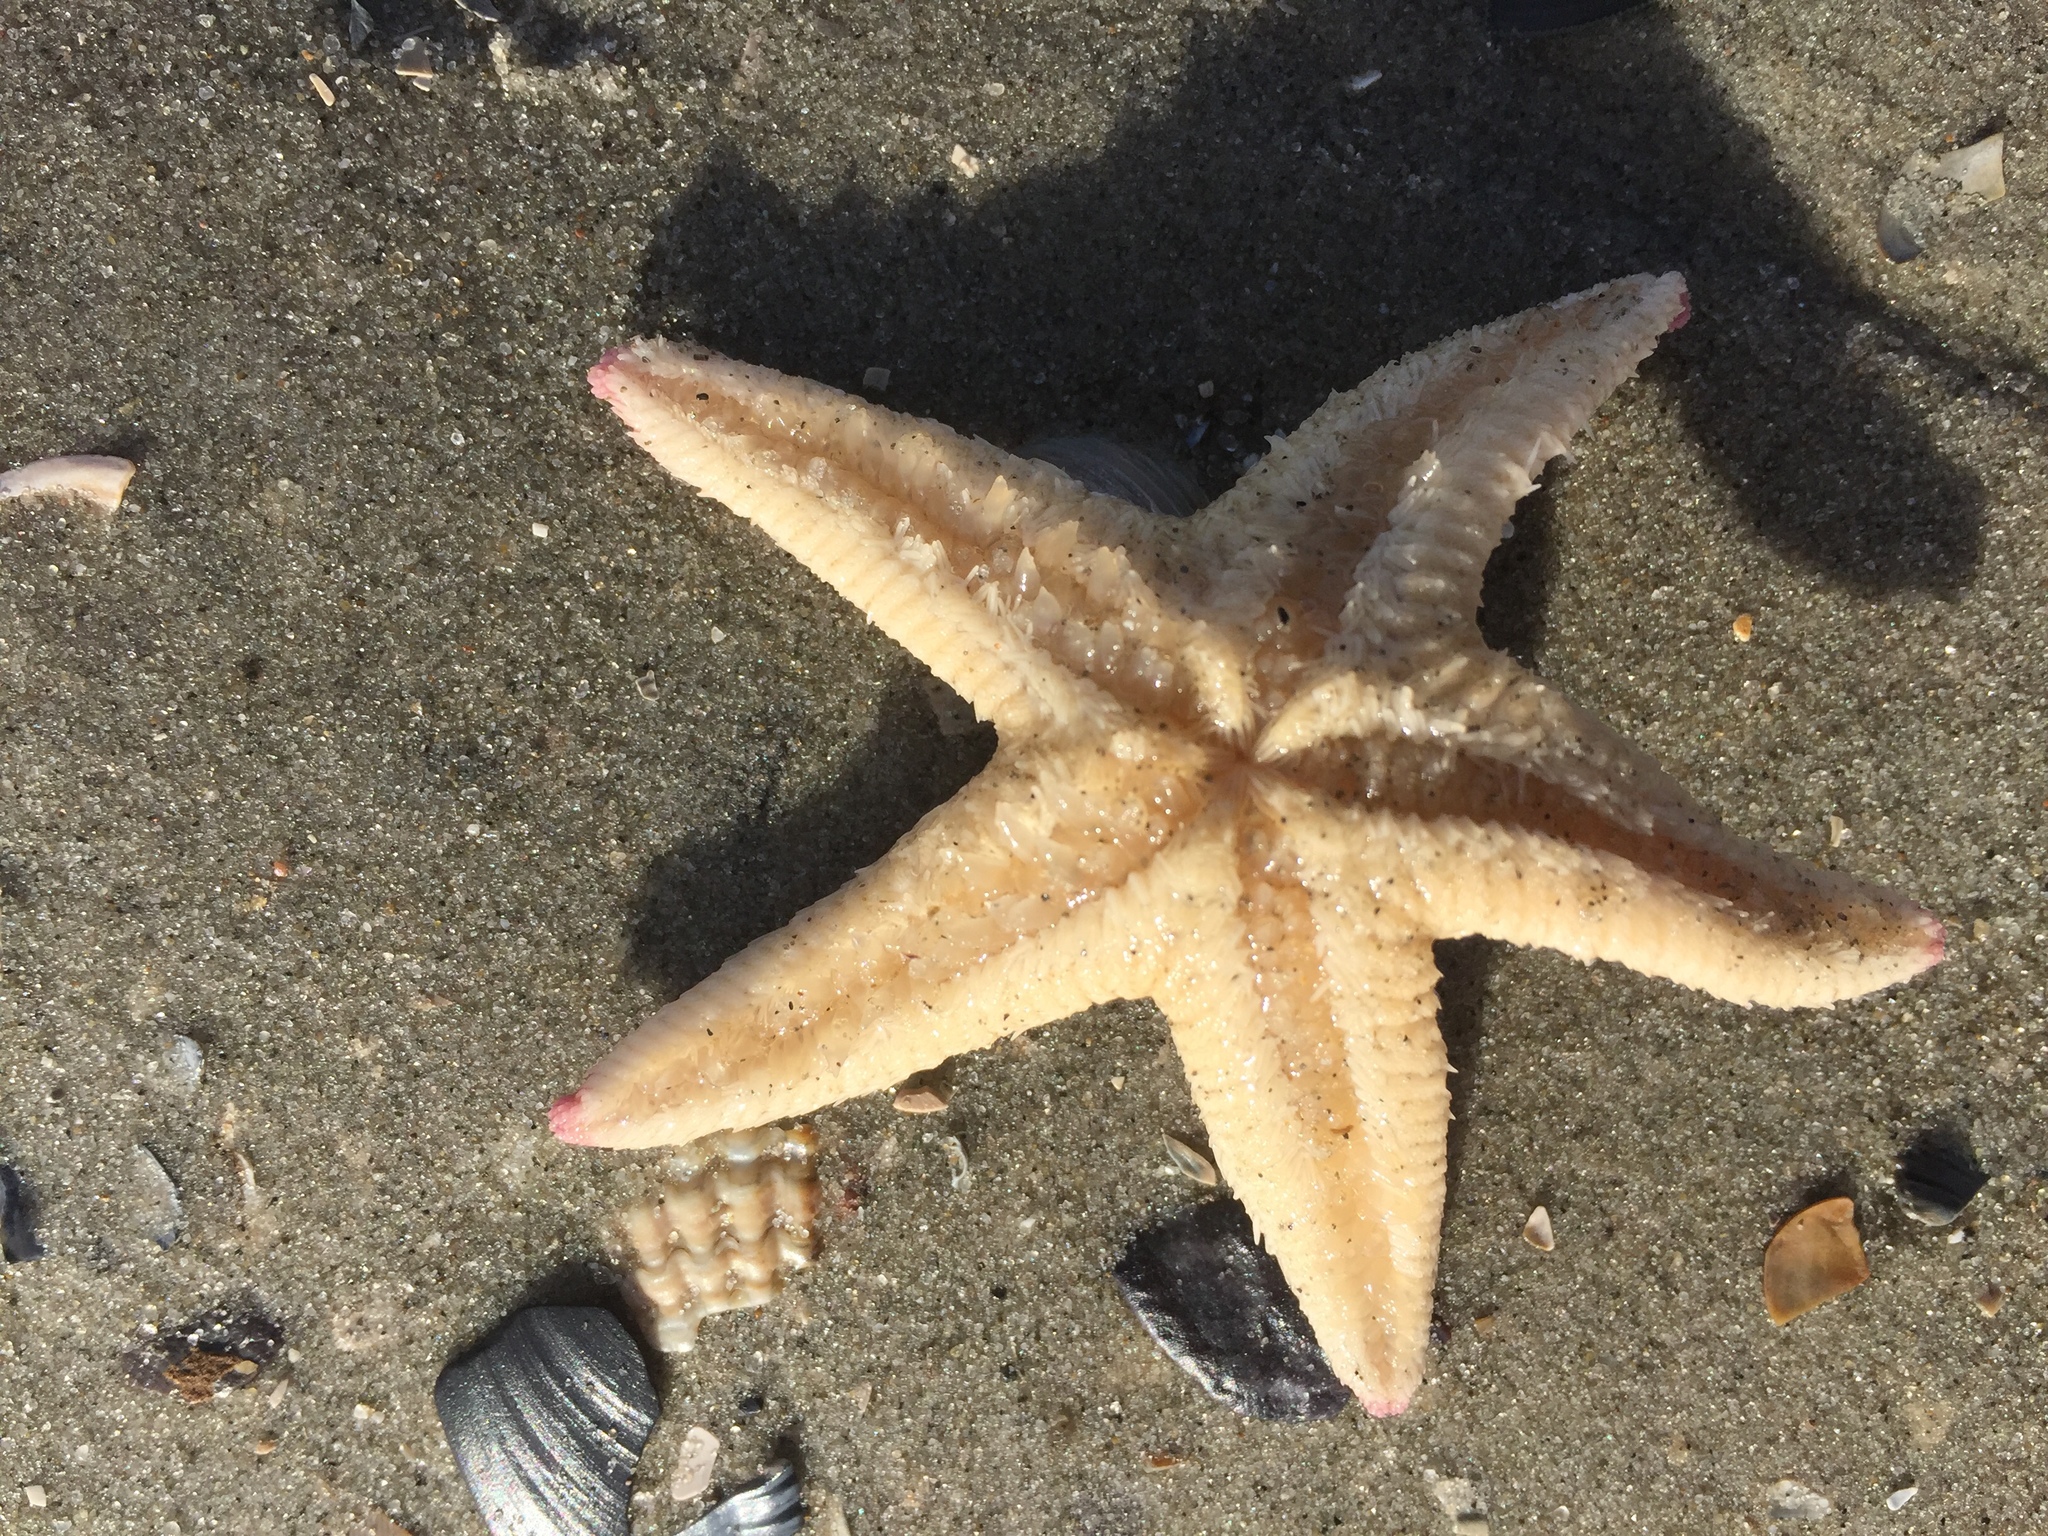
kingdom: Animalia
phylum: Echinodermata
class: Asteroidea
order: Paxillosida
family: Astropectinidae
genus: Astropecten
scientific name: Astropecten irregularis
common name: Sand star
